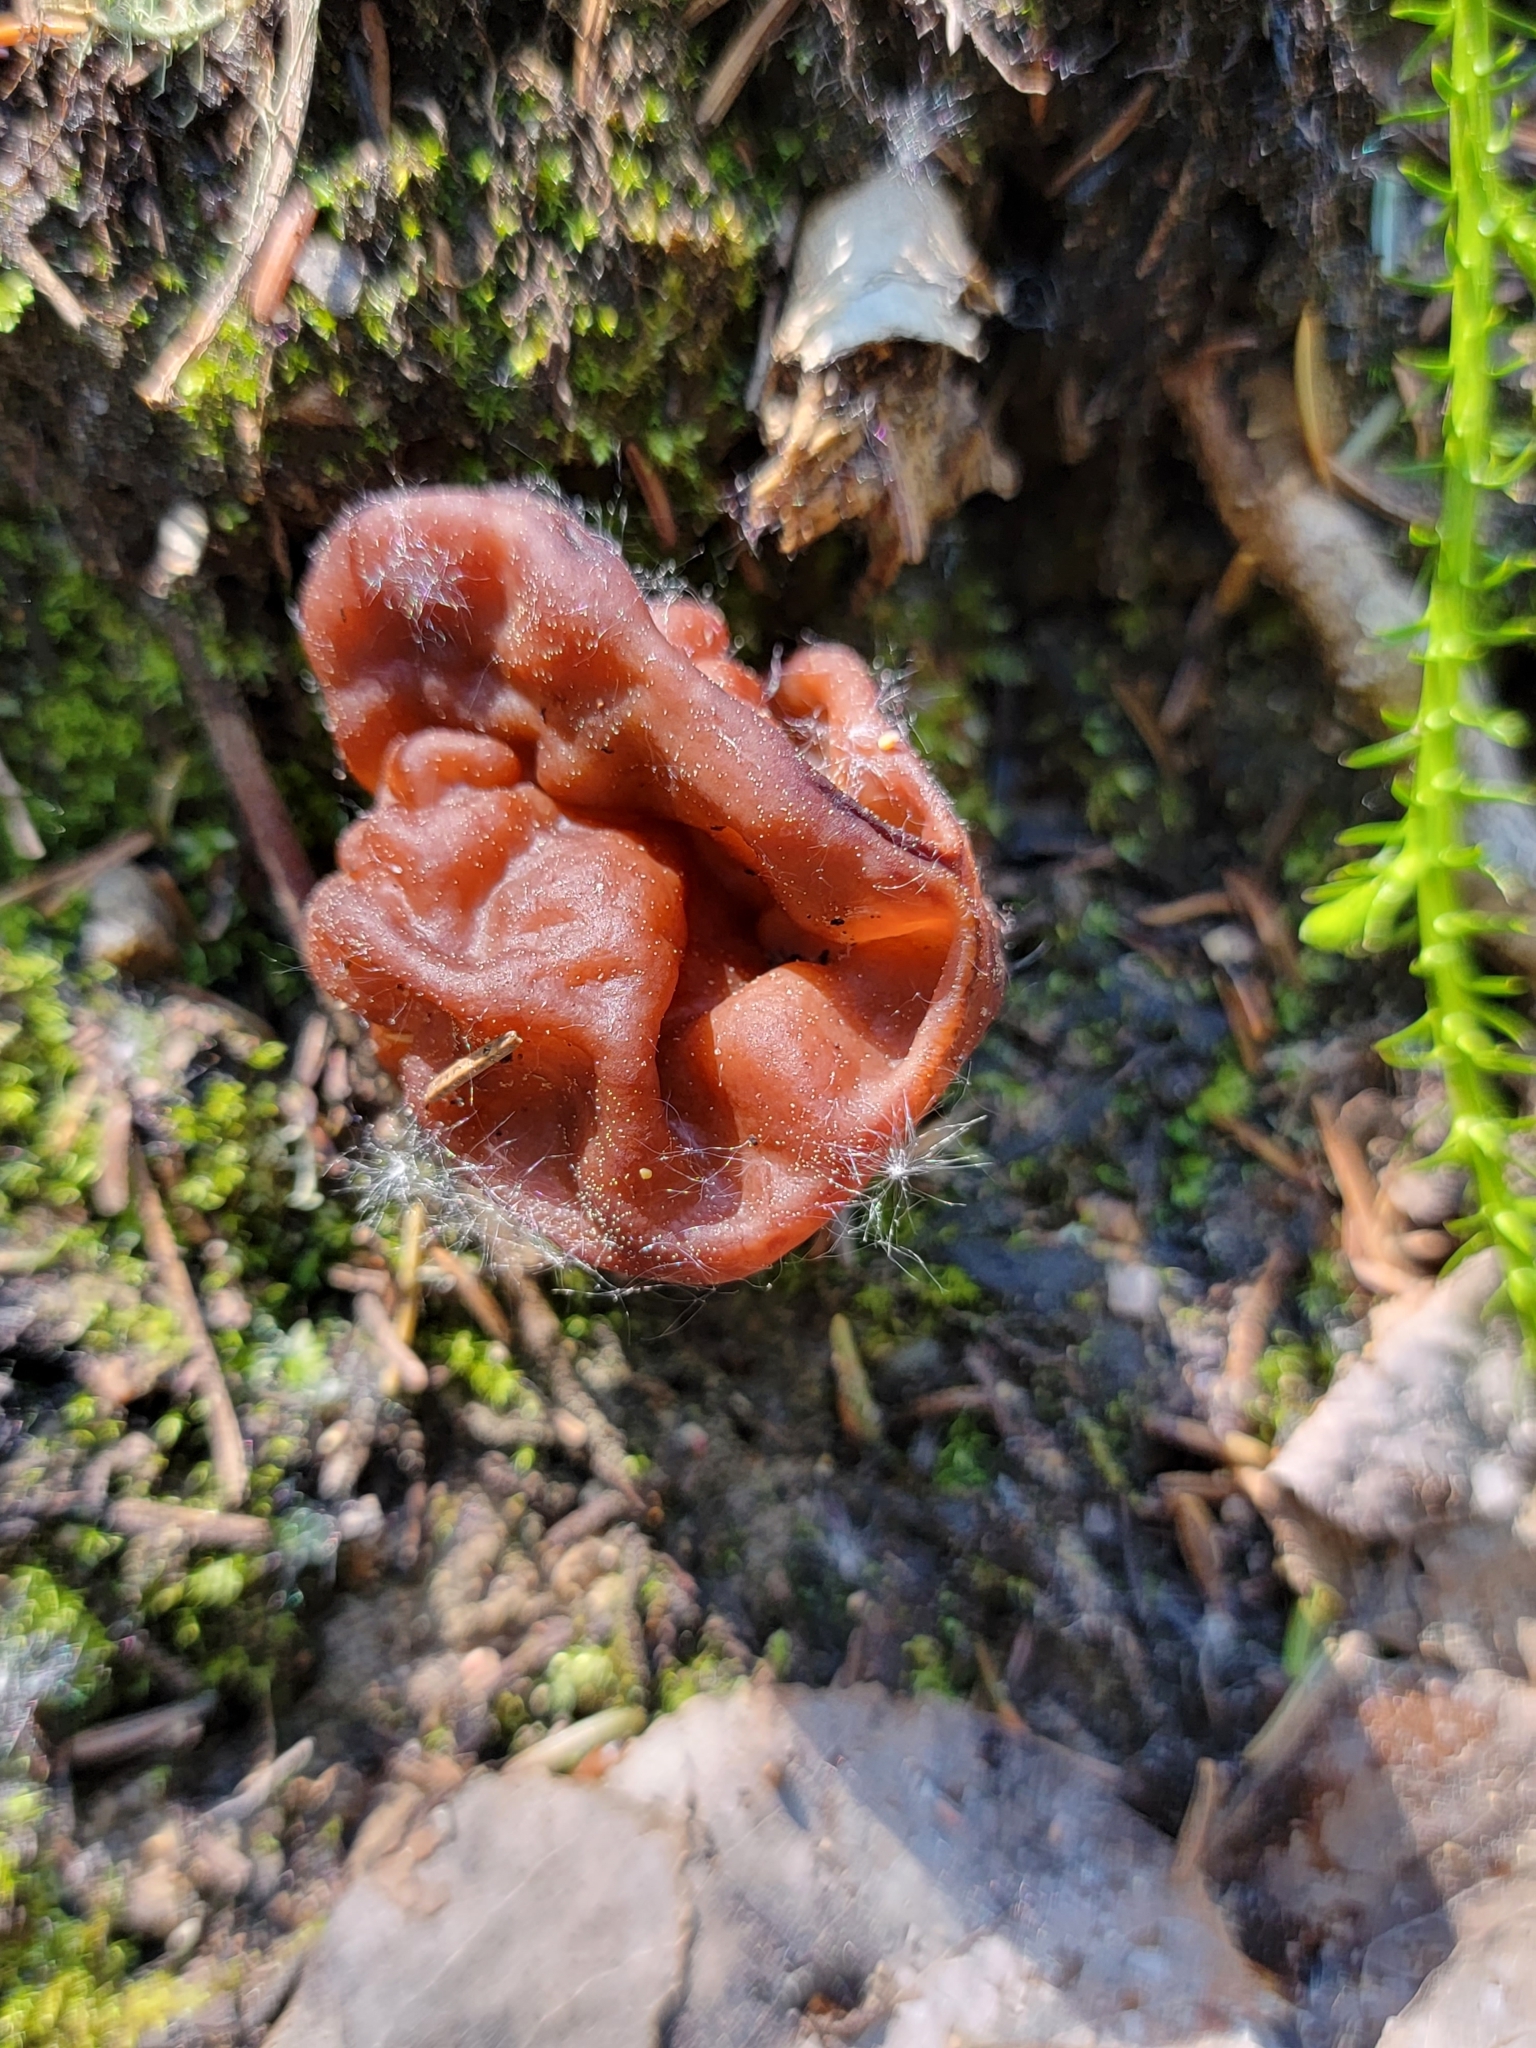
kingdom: Fungi
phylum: Ascomycota
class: Pezizomycetes
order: Pezizales
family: Discinaceae
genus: Gyromitra
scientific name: Gyromitra esculenta
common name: False morel
